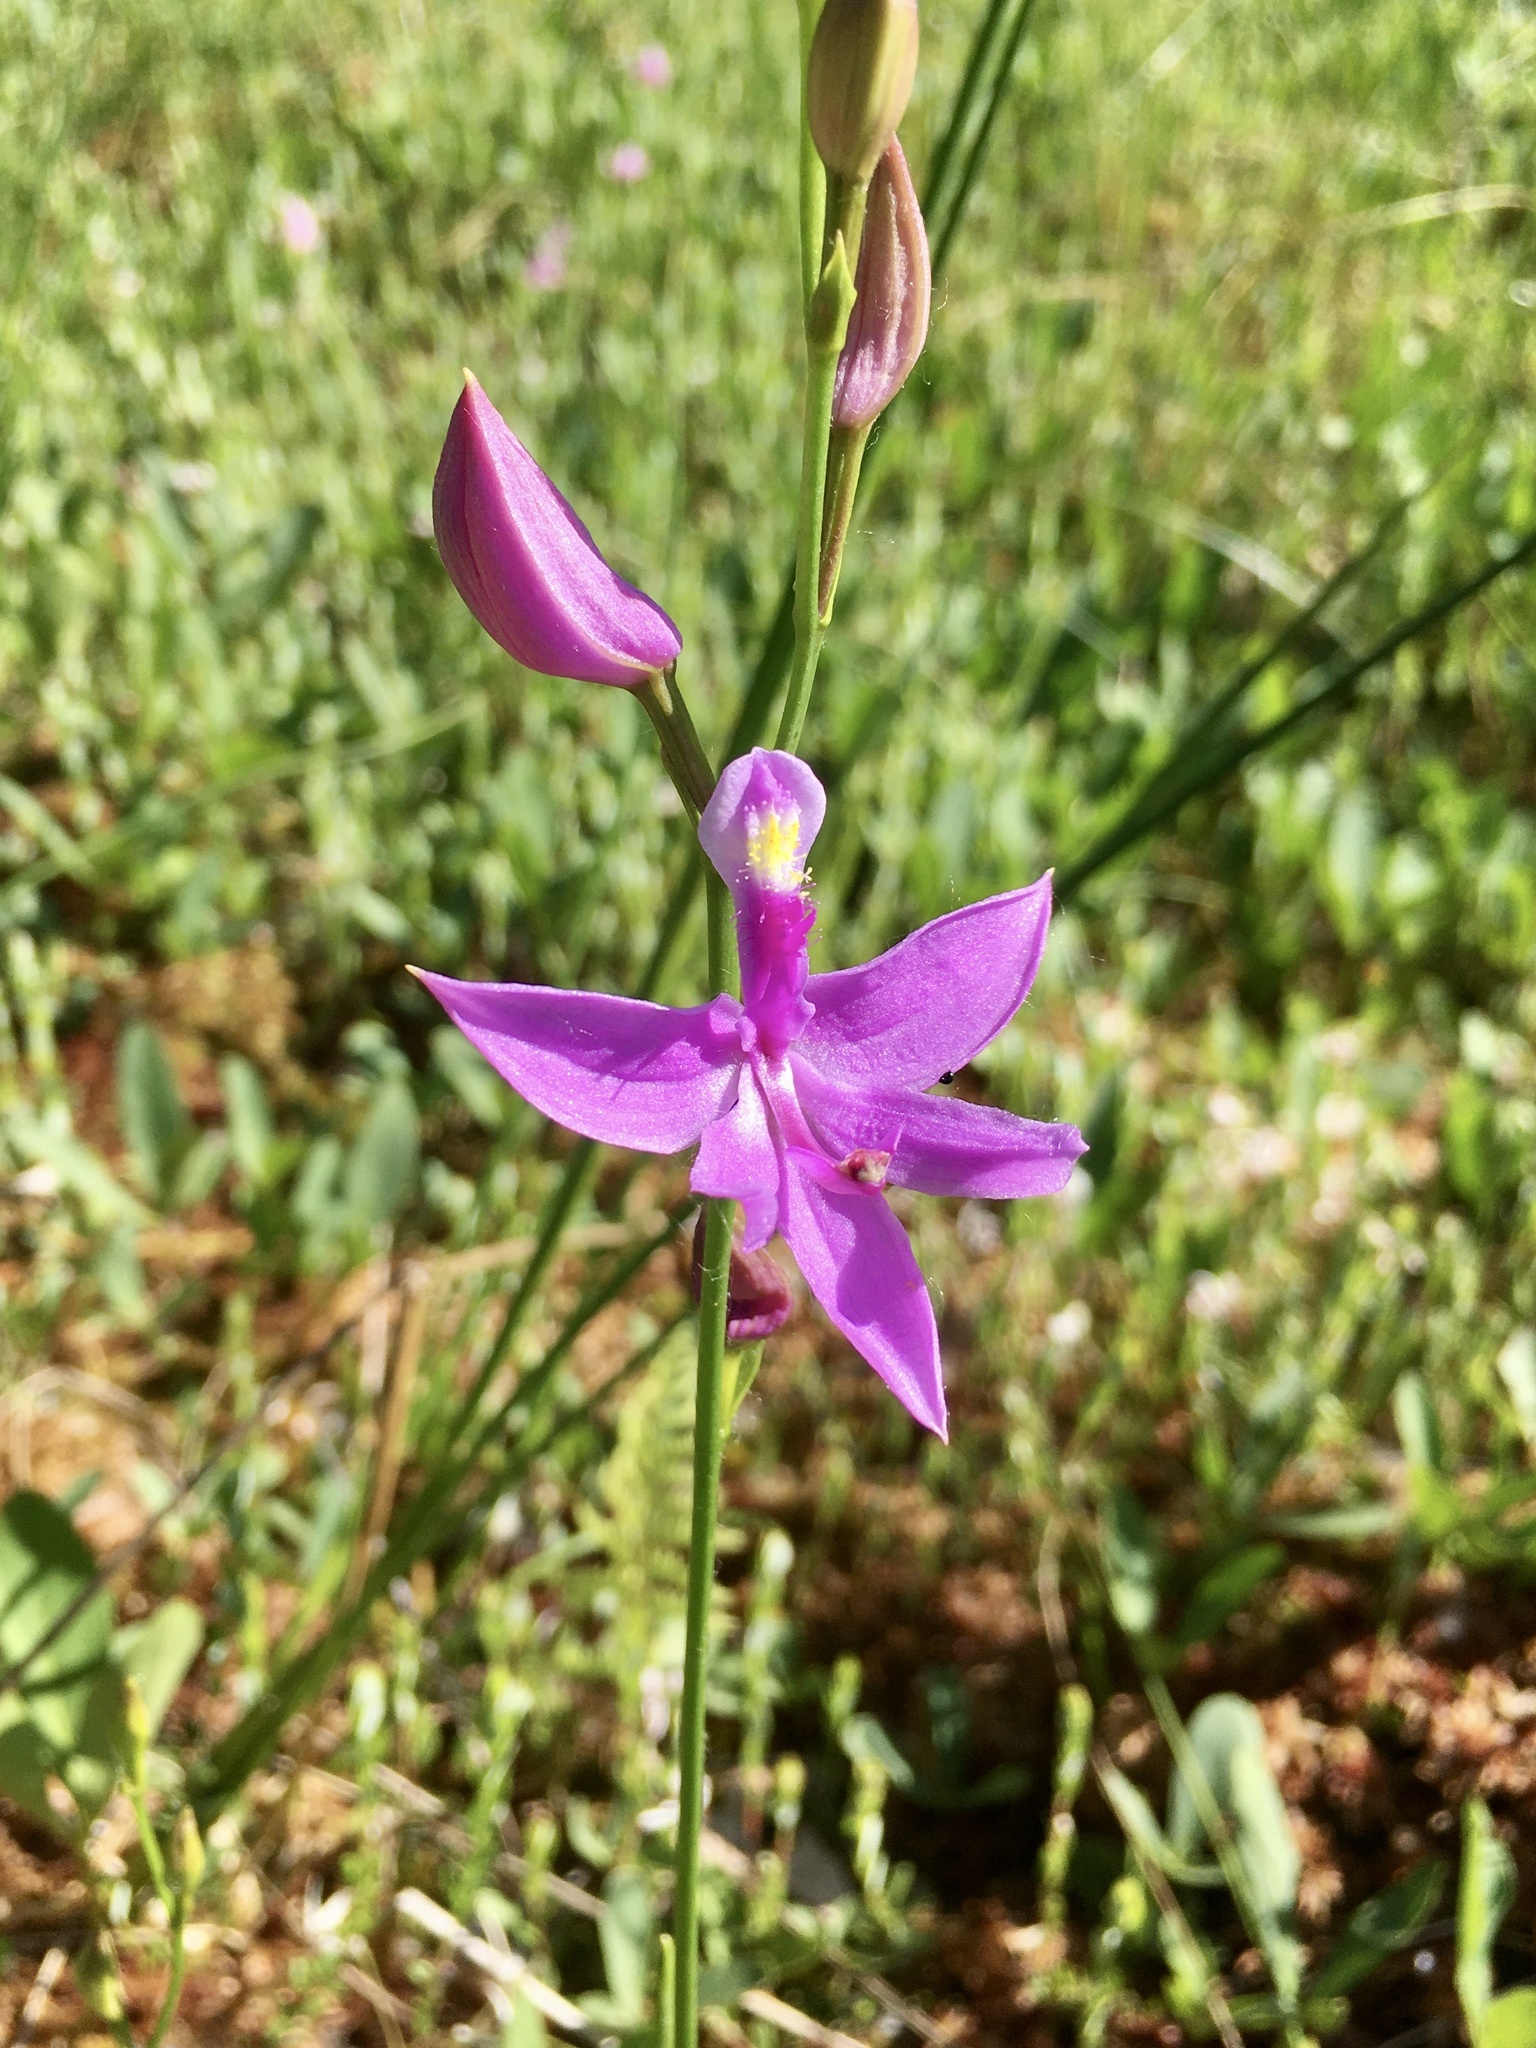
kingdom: Plantae
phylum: Tracheophyta
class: Liliopsida
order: Asparagales
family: Orchidaceae
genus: Calopogon
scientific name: Calopogon tuberosus
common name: Grass-pink
